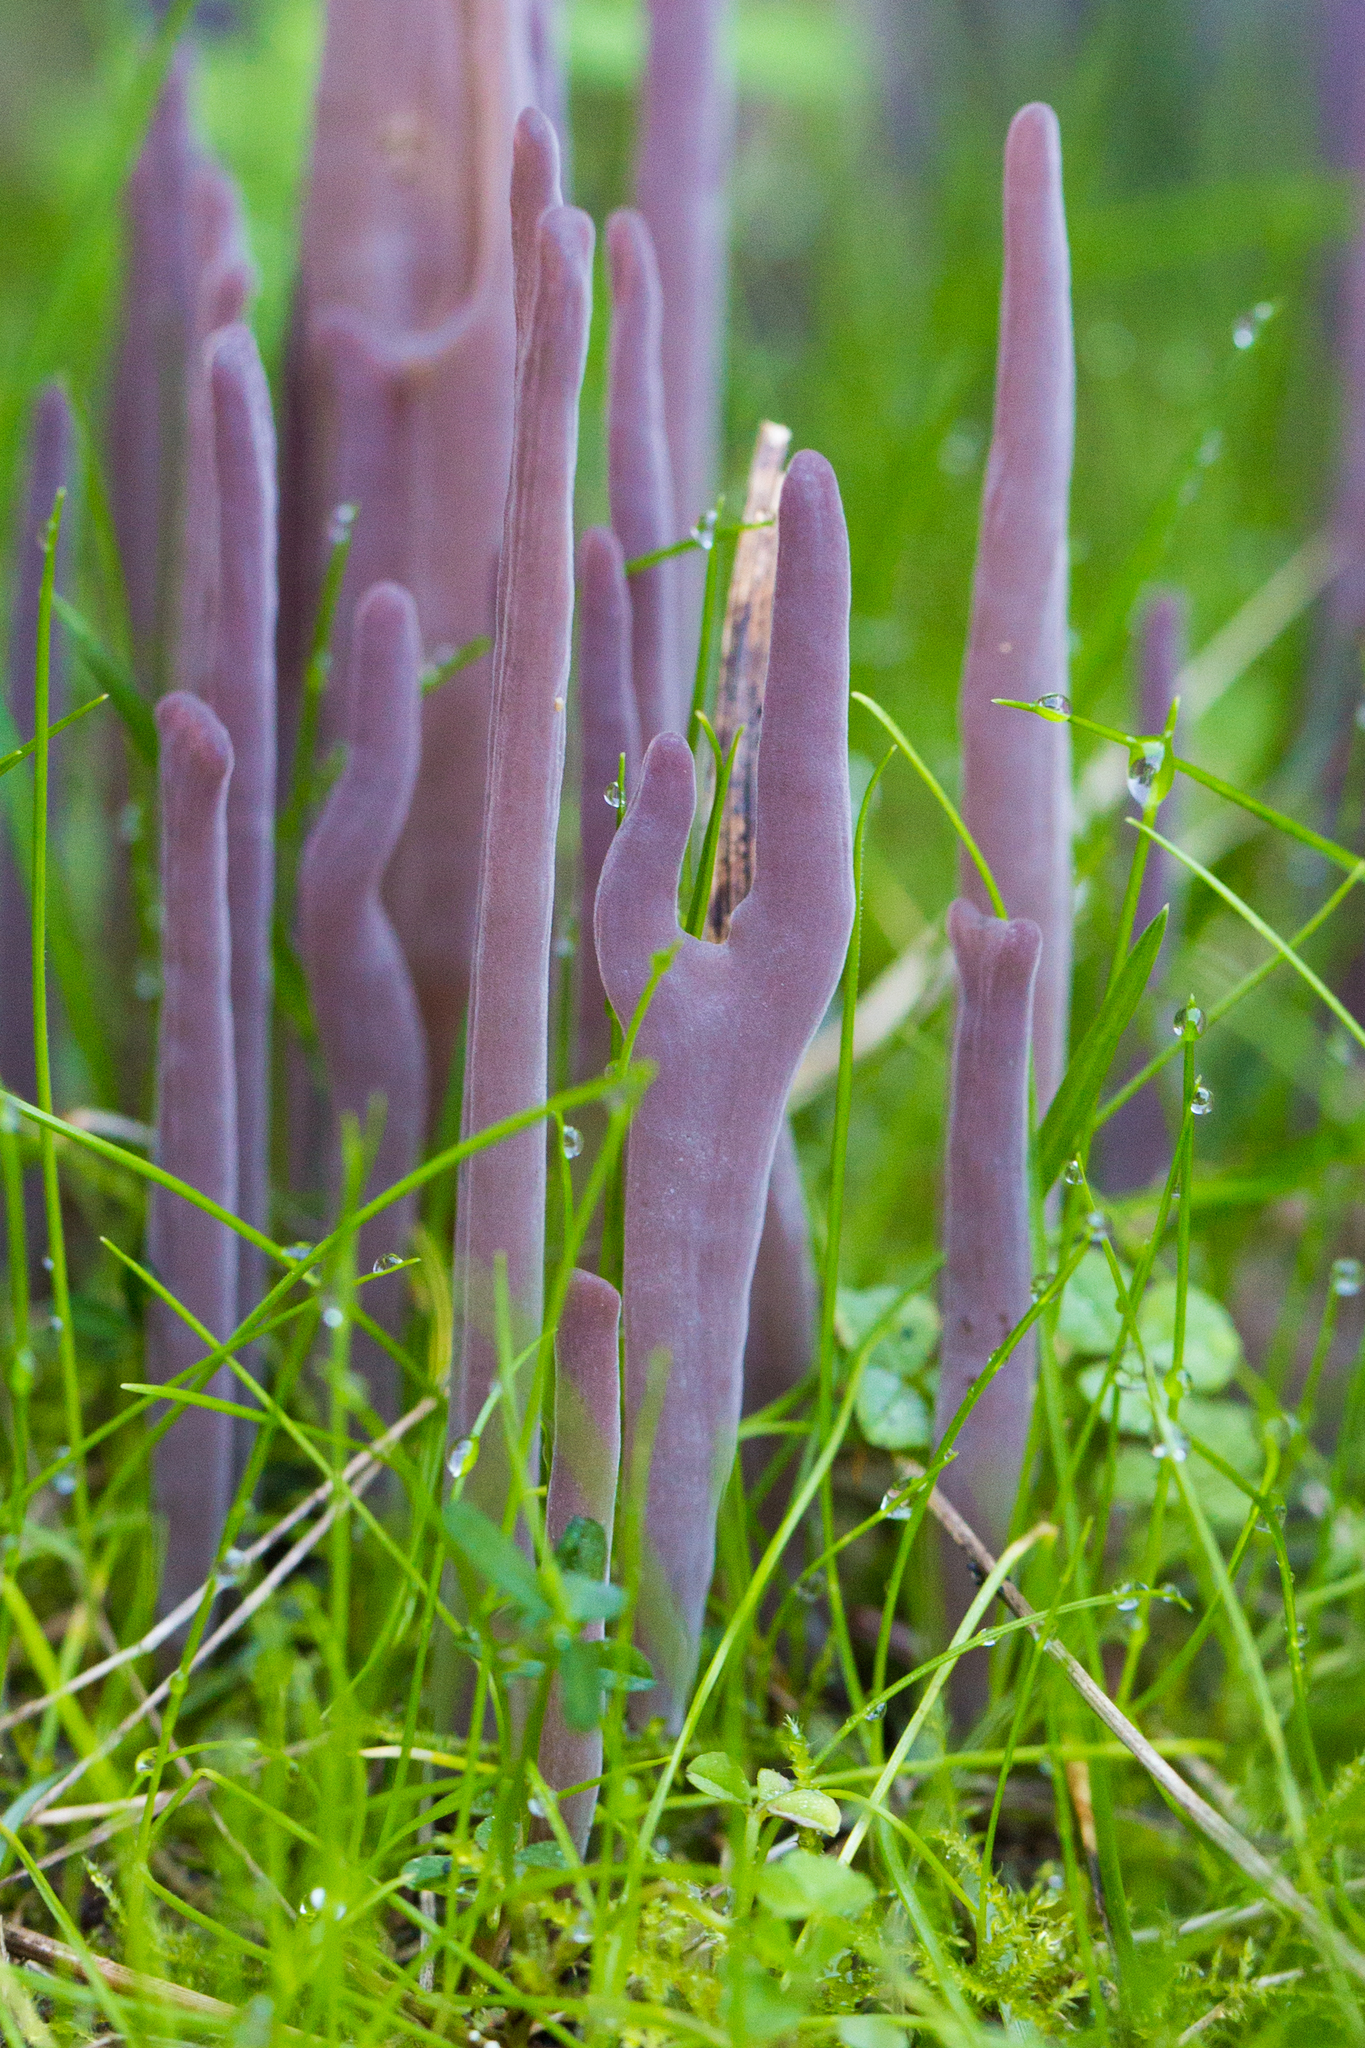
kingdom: Fungi
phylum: Basidiomycota
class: Agaricomycetes
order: Hymenochaetales
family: Rickenellaceae
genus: Alloclavaria
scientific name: Alloclavaria purpurea
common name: Purple spindles
